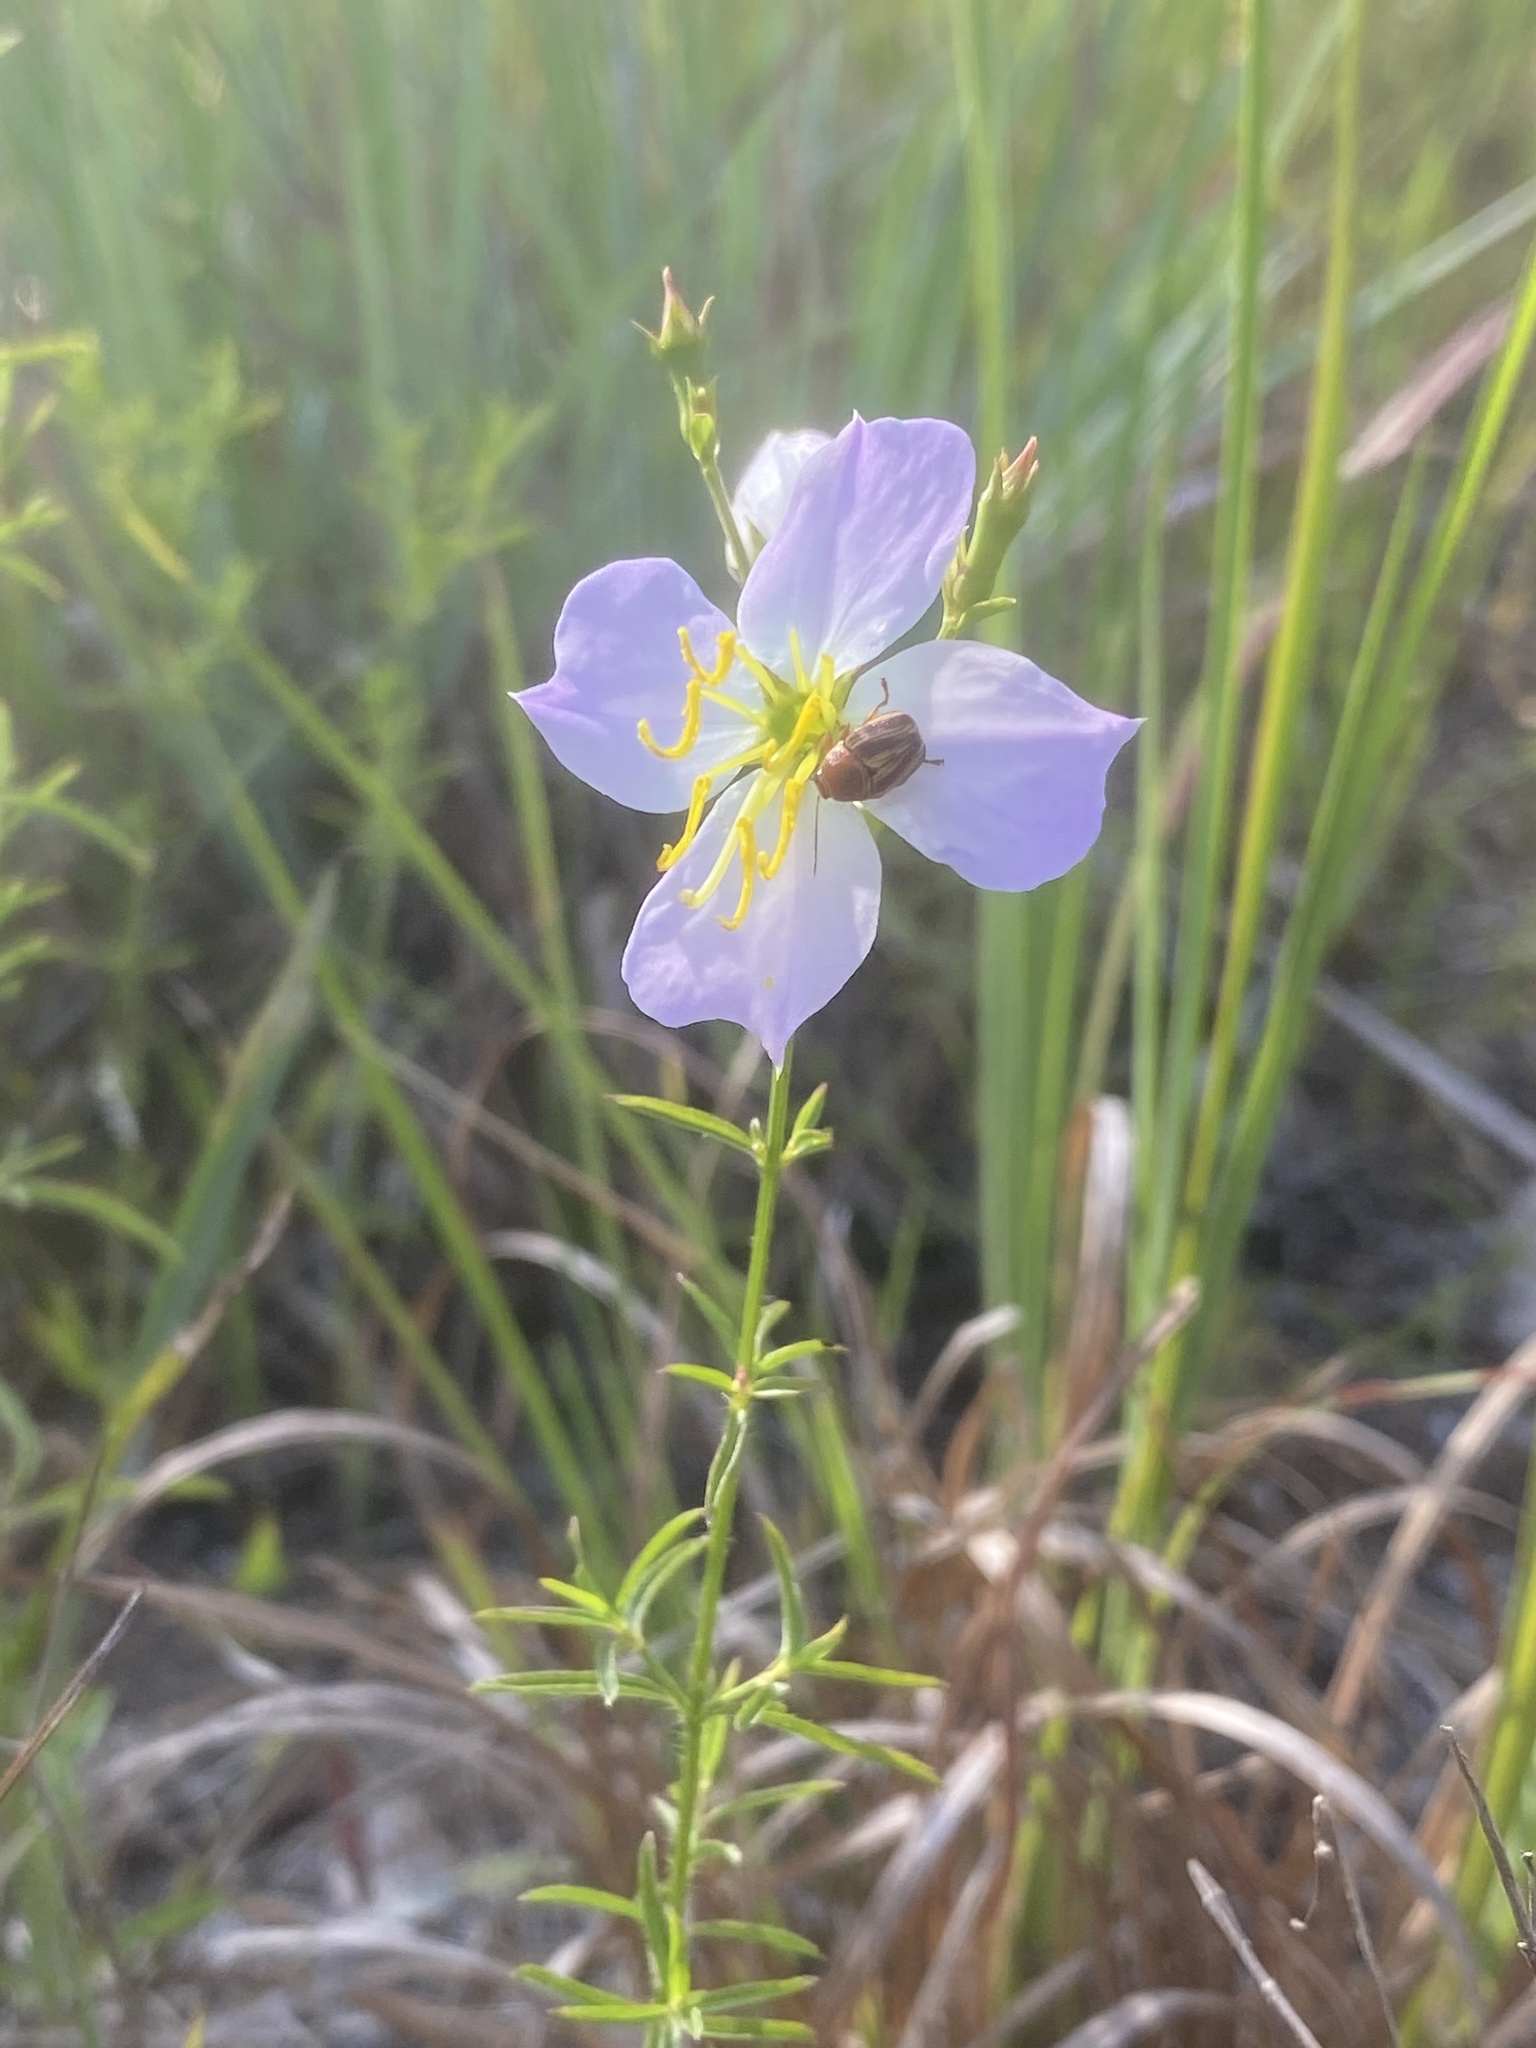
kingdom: Plantae
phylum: Tracheophyta
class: Magnoliopsida
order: Myrtales
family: Melastomataceae
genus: Rhexia
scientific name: Rhexia mariana
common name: Dull meadow-pitcher
